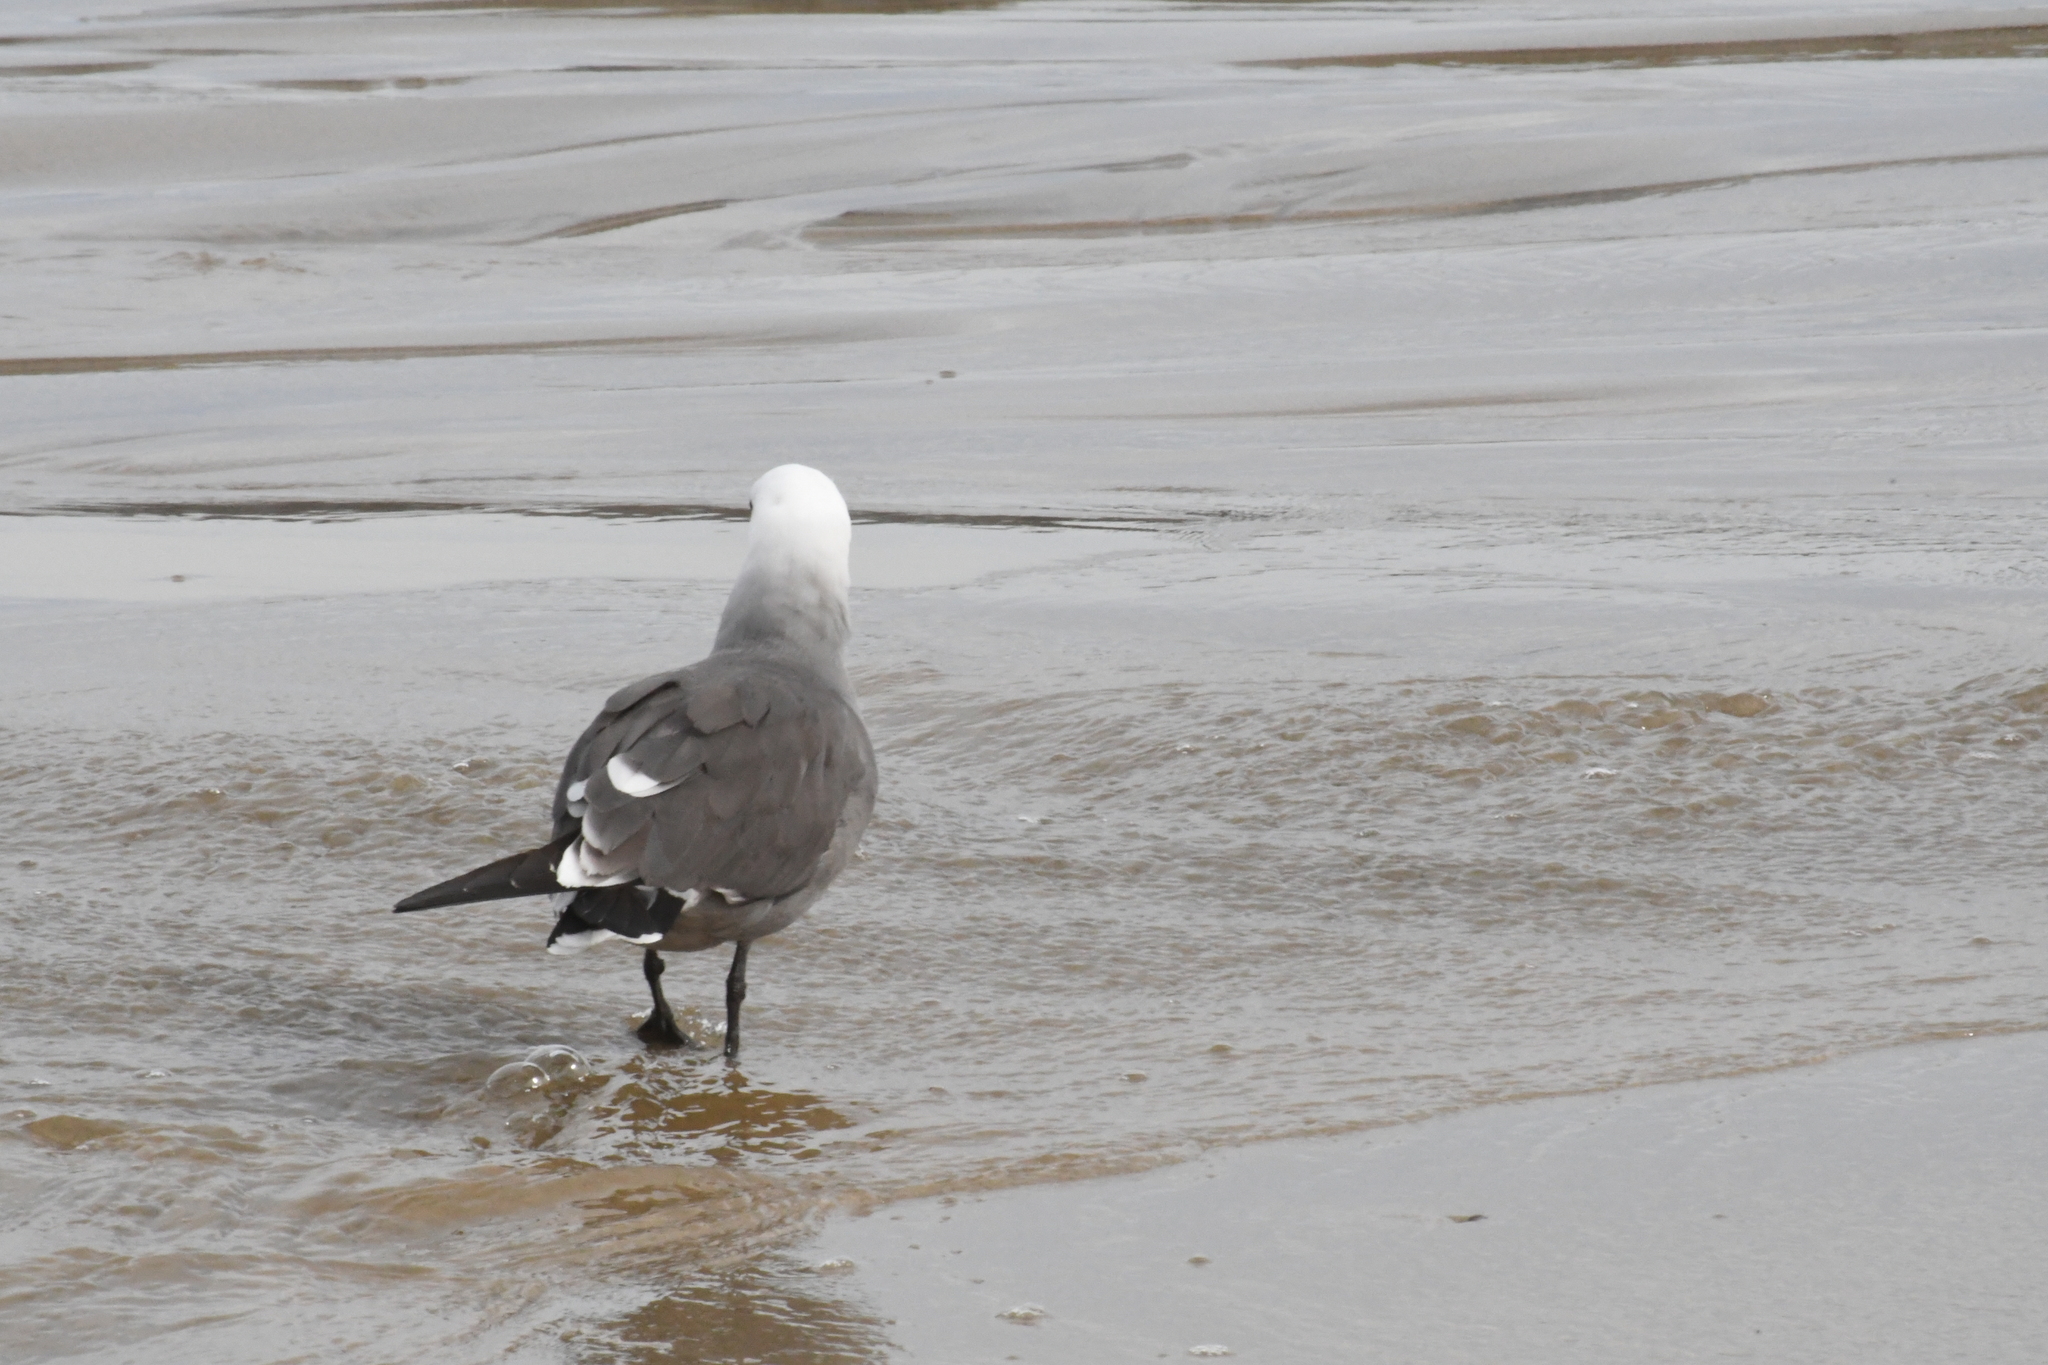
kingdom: Animalia
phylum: Chordata
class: Aves
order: Charadriiformes
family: Laridae
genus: Larus
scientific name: Larus heermanni
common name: Heermann's gull
